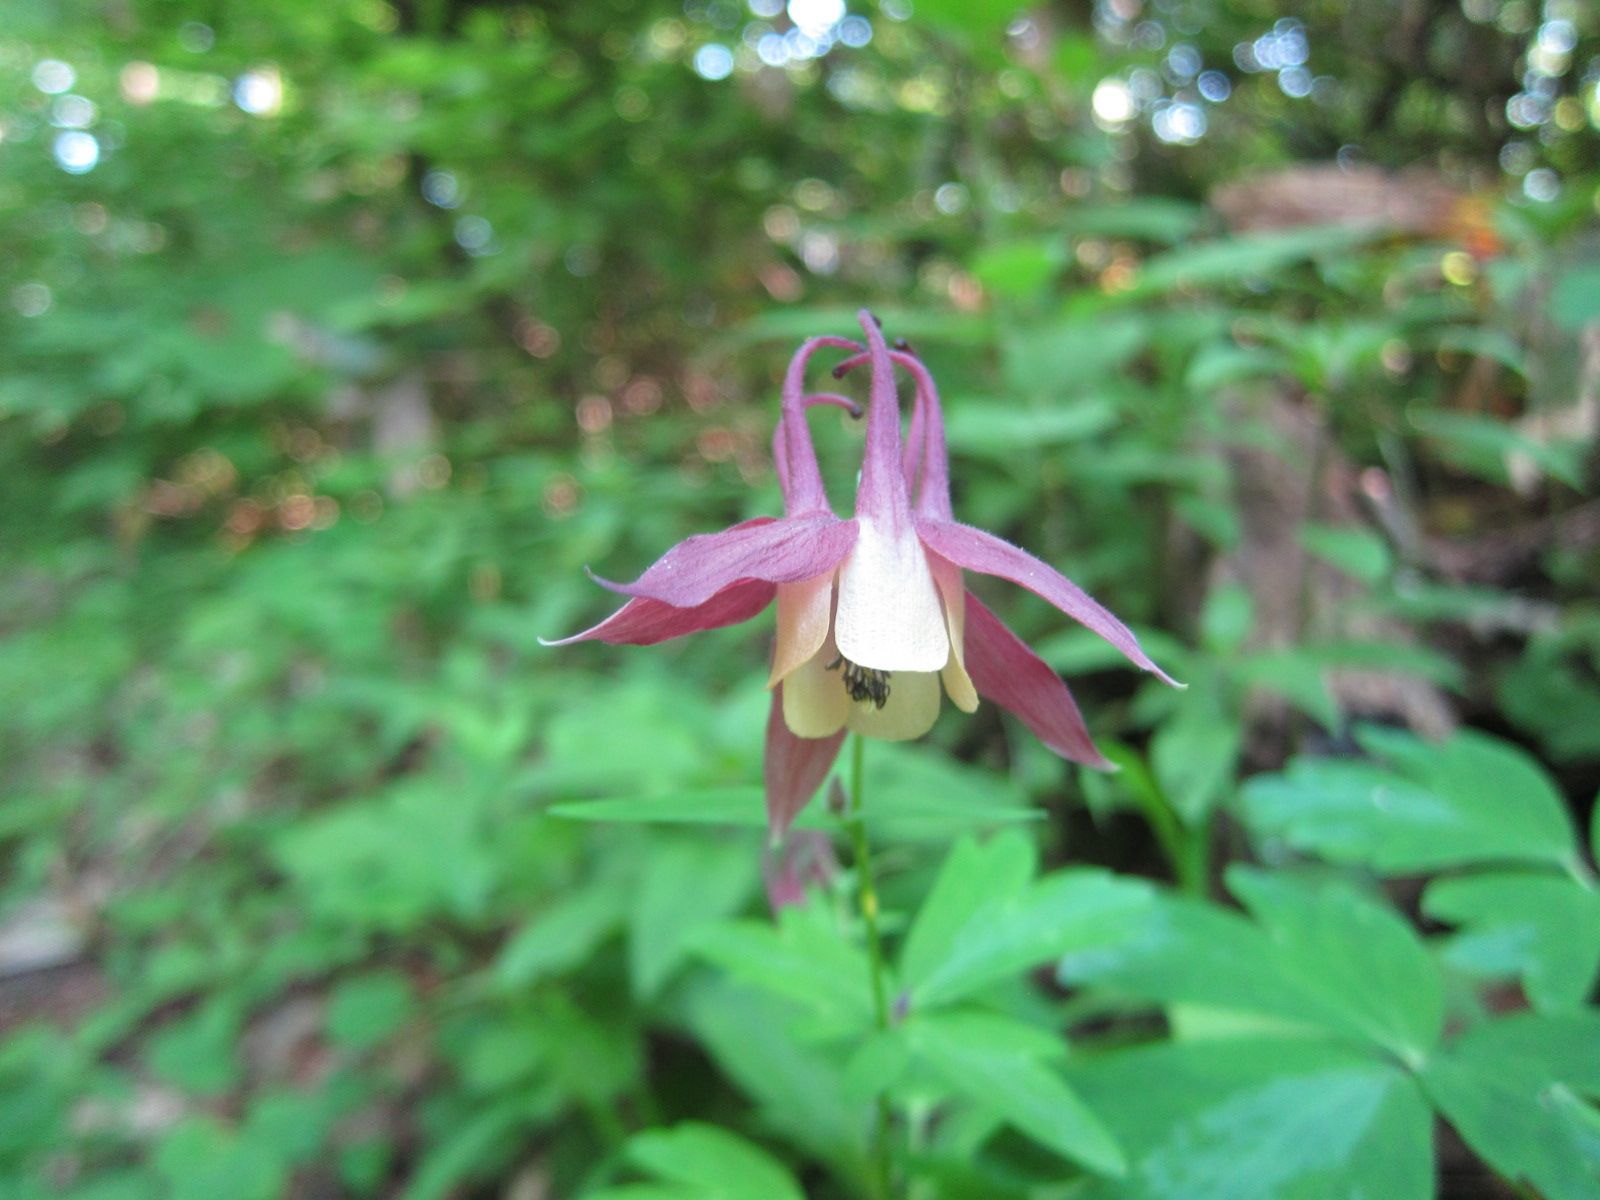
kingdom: Plantae
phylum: Tracheophyta
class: Magnoliopsida
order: Ranunculales
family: Ranunculaceae
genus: Aquilegia
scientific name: Aquilegia buergeriana
